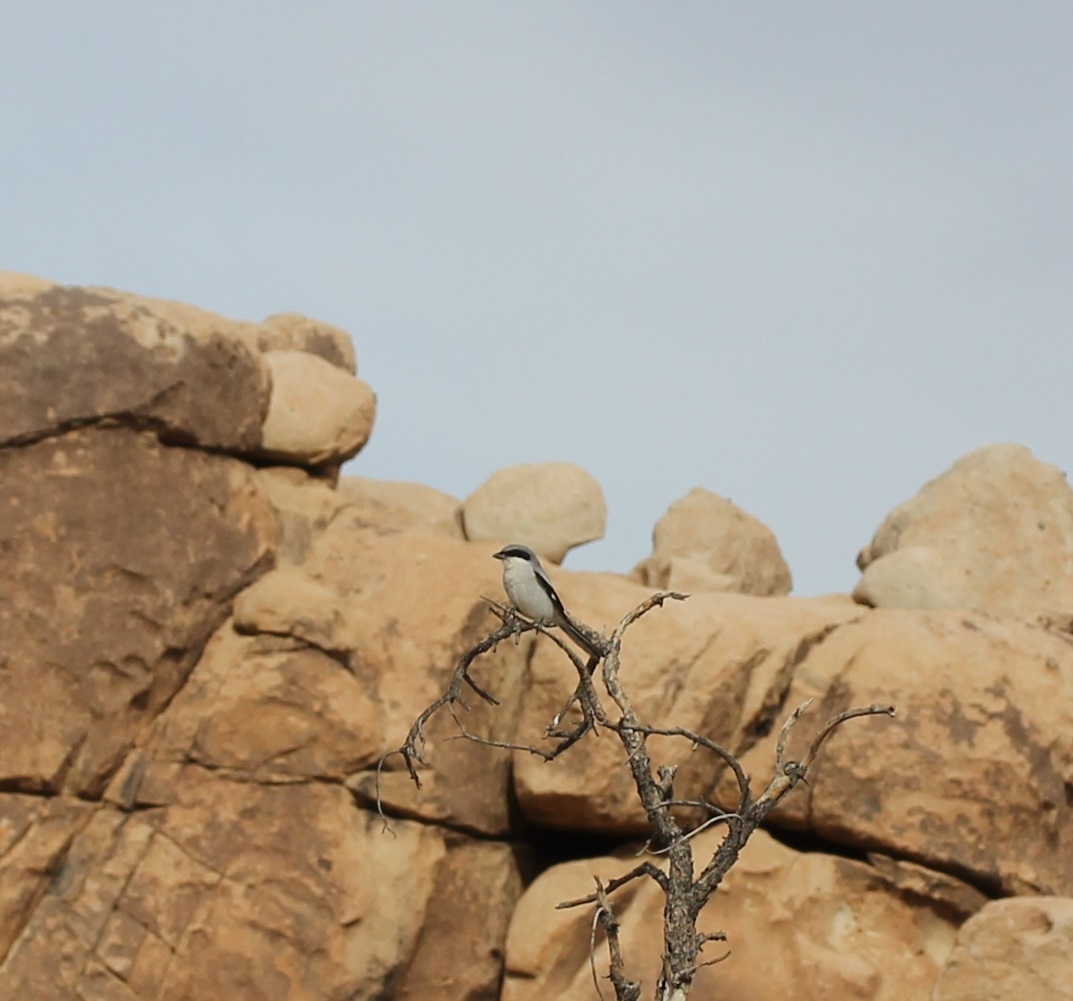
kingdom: Animalia
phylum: Chordata
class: Aves
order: Passeriformes
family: Laniidae
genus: Lanius
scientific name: Lanius ludovicianus
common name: Loggerhead shrike
